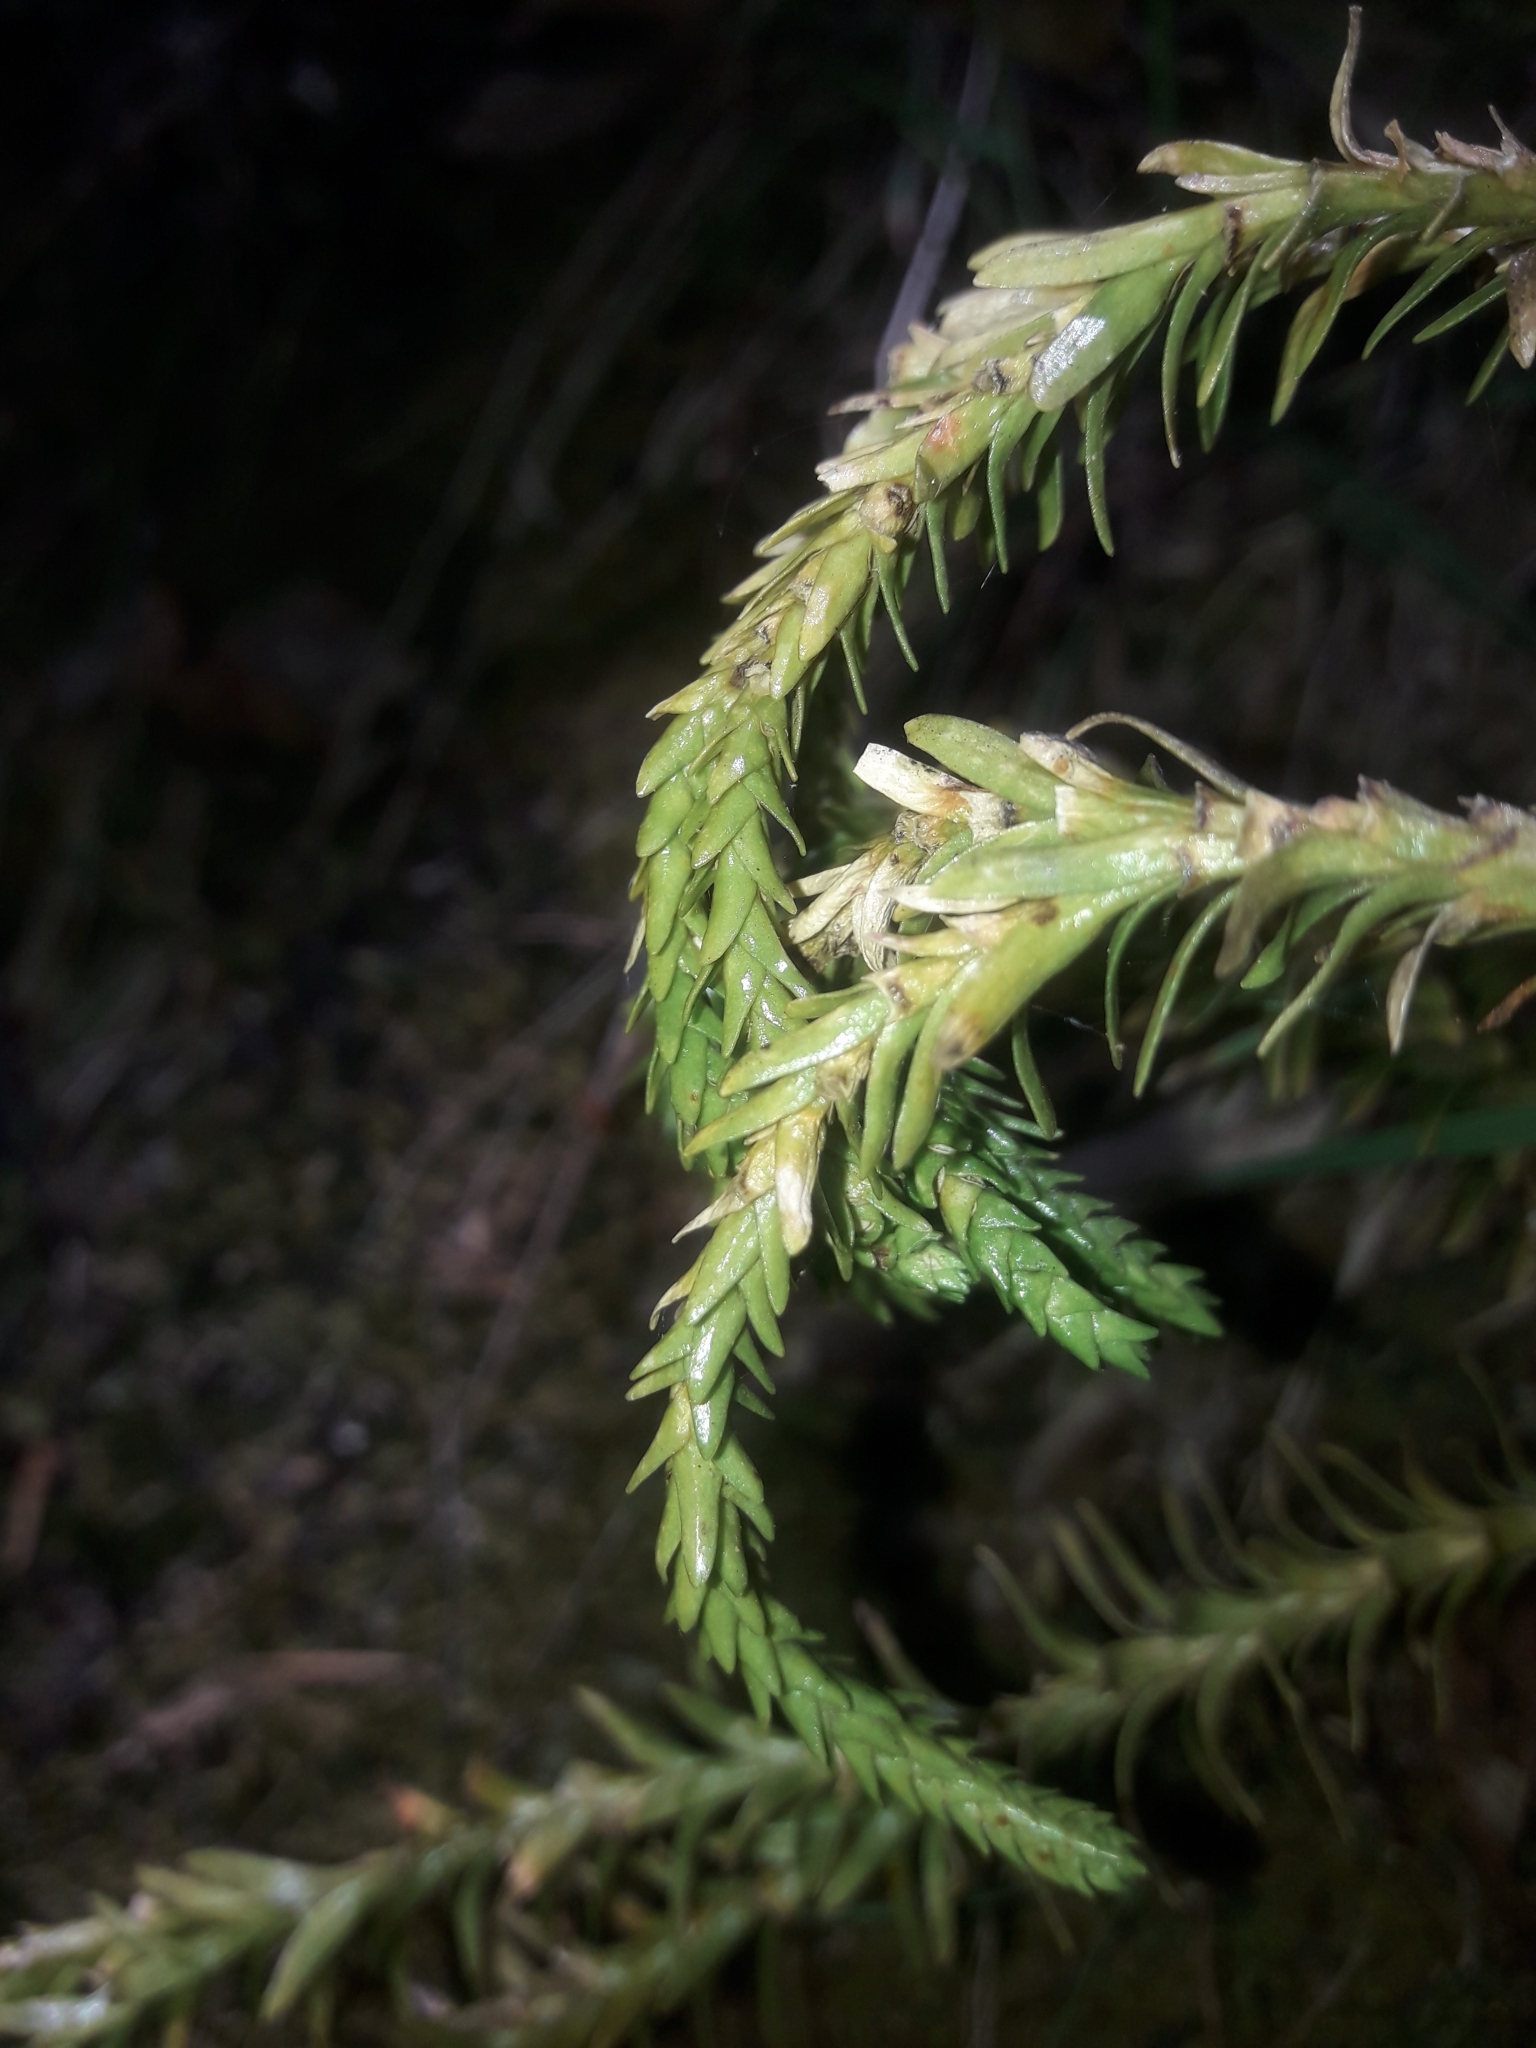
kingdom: Plantae
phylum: Tracheophyta
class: Lycopodiopsida
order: Lycopodiales
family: Lycopodiaceae
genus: Phlegmariurus
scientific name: Phlegmariurus varius
